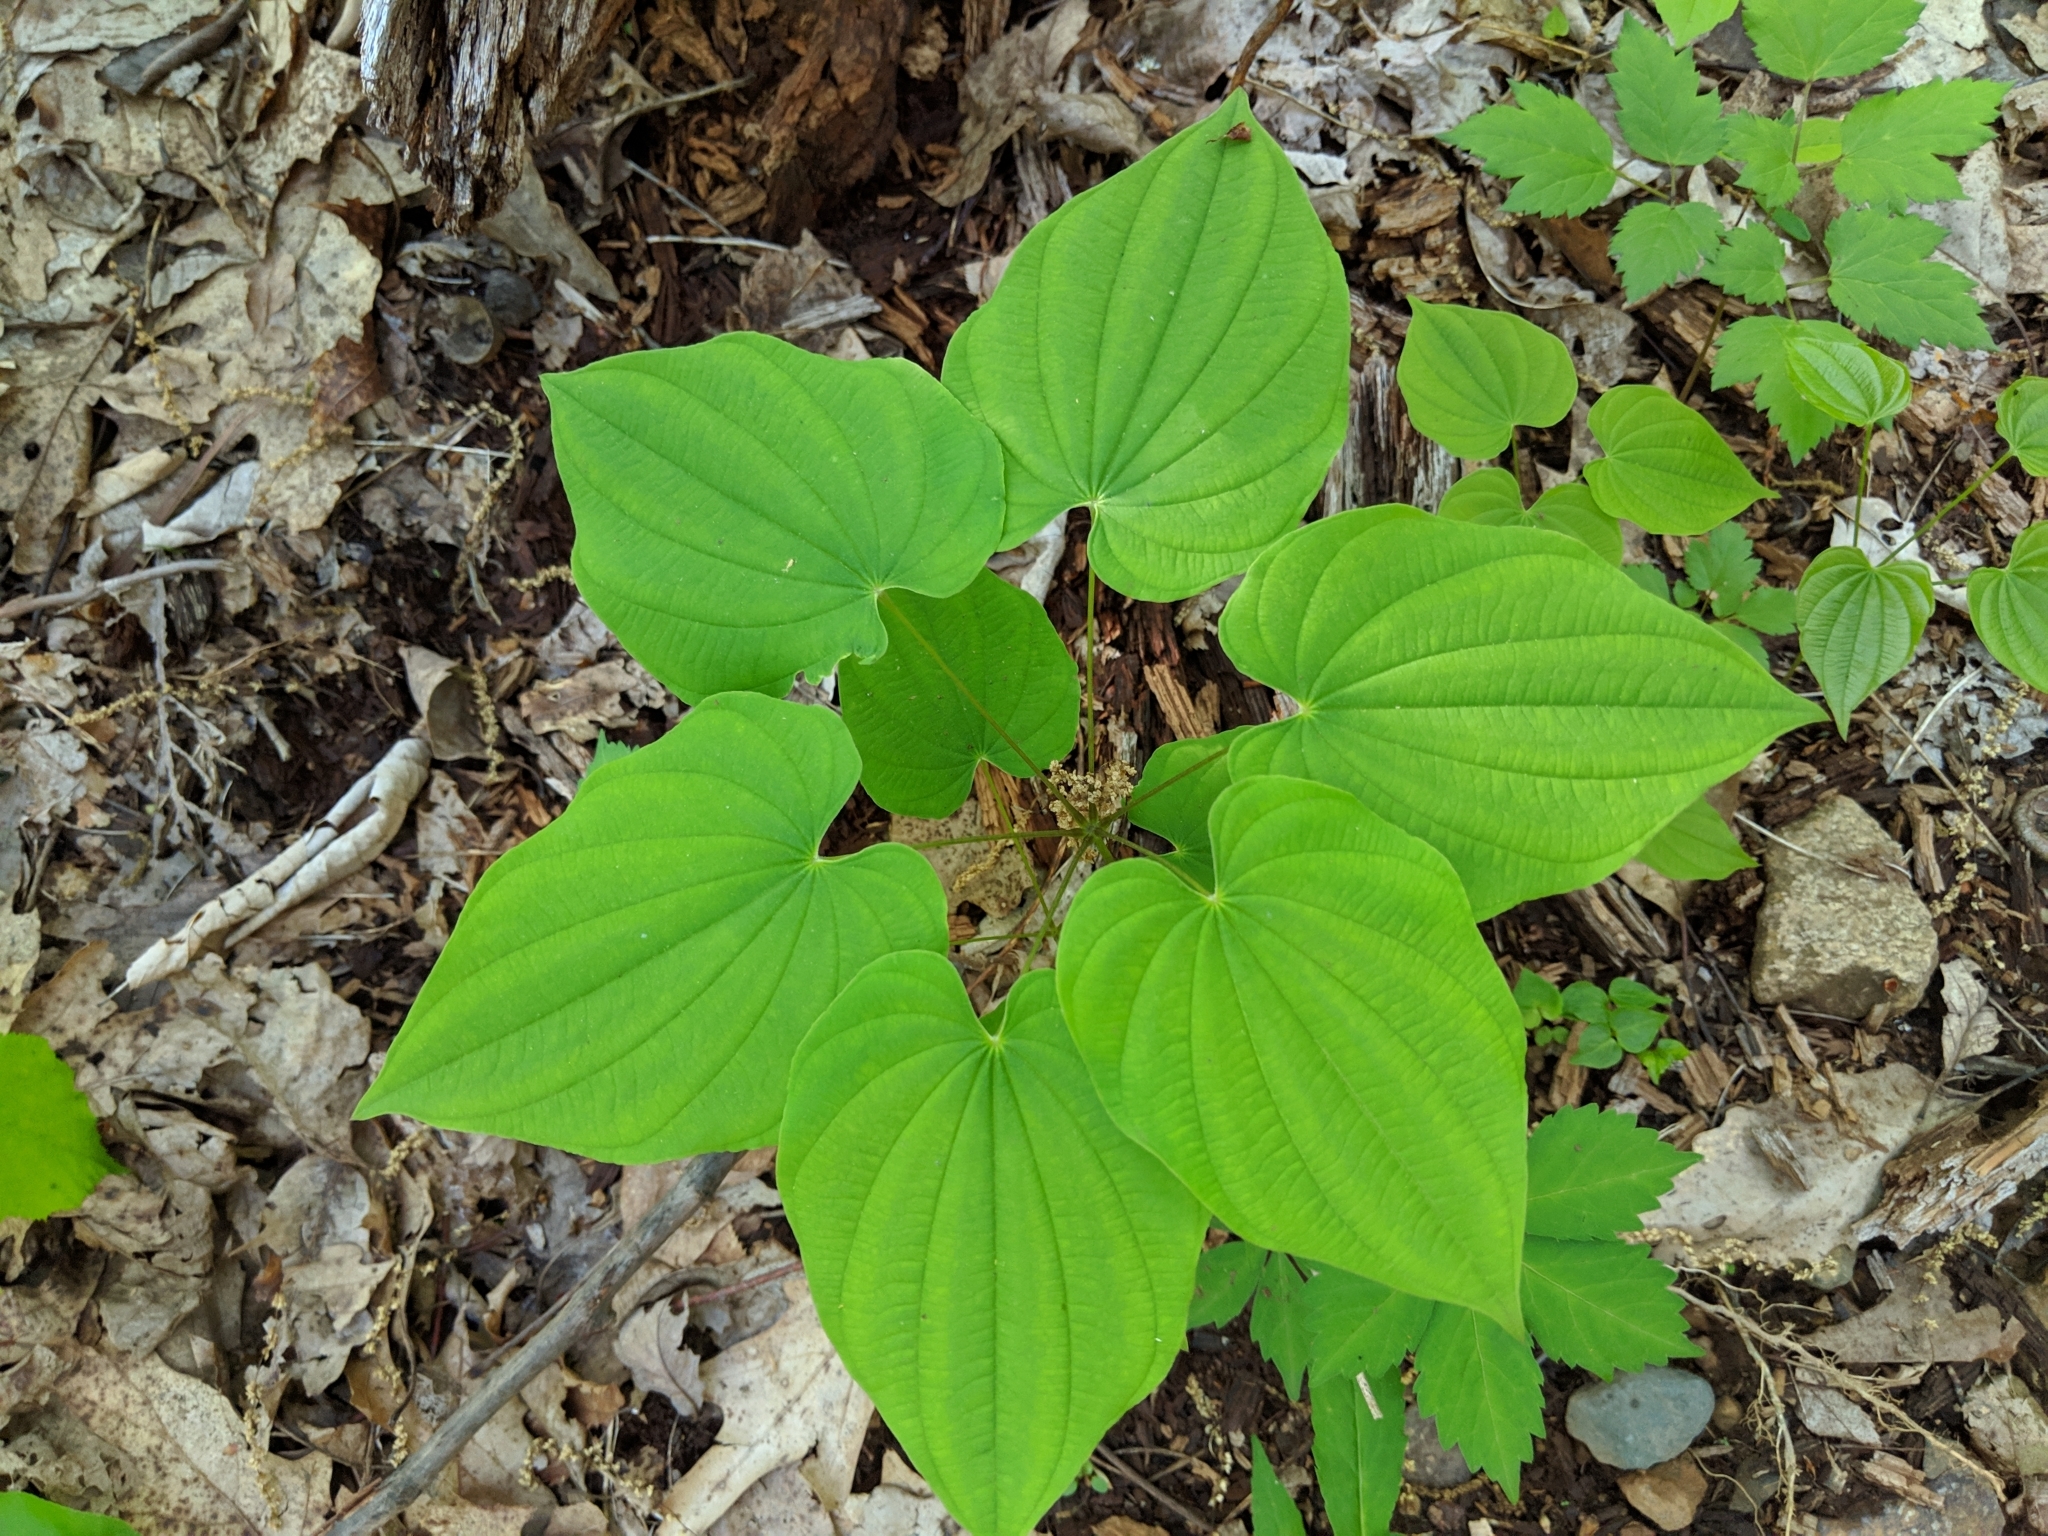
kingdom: Plantae
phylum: Tracheophyta
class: Liliopsida
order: Dioscoreales
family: Dioscoreaceae
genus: Dioscorea
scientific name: Dioscorea villosa
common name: Wild yam
